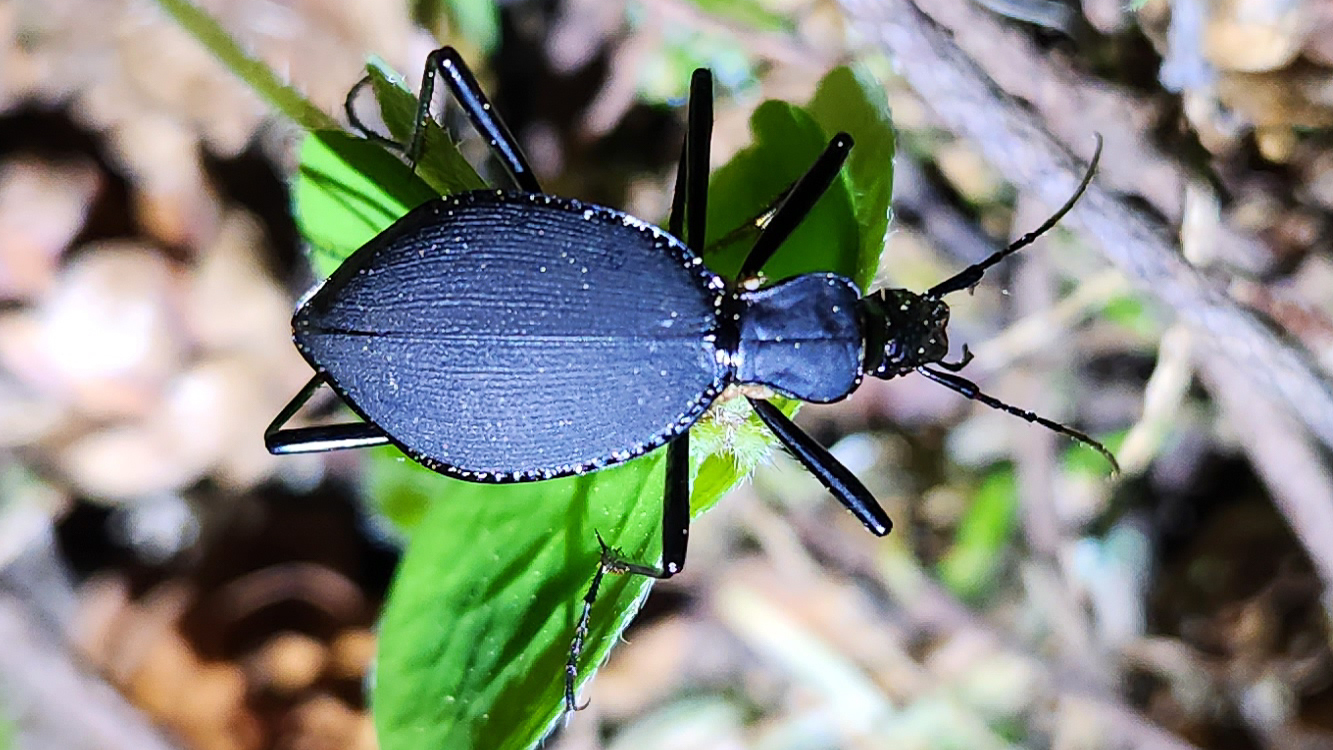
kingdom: Animalia
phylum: Arthropoda
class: Insecta
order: Coleoptera
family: Carabidae
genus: Scaphinotus
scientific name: Scaphinotus angusticollis
